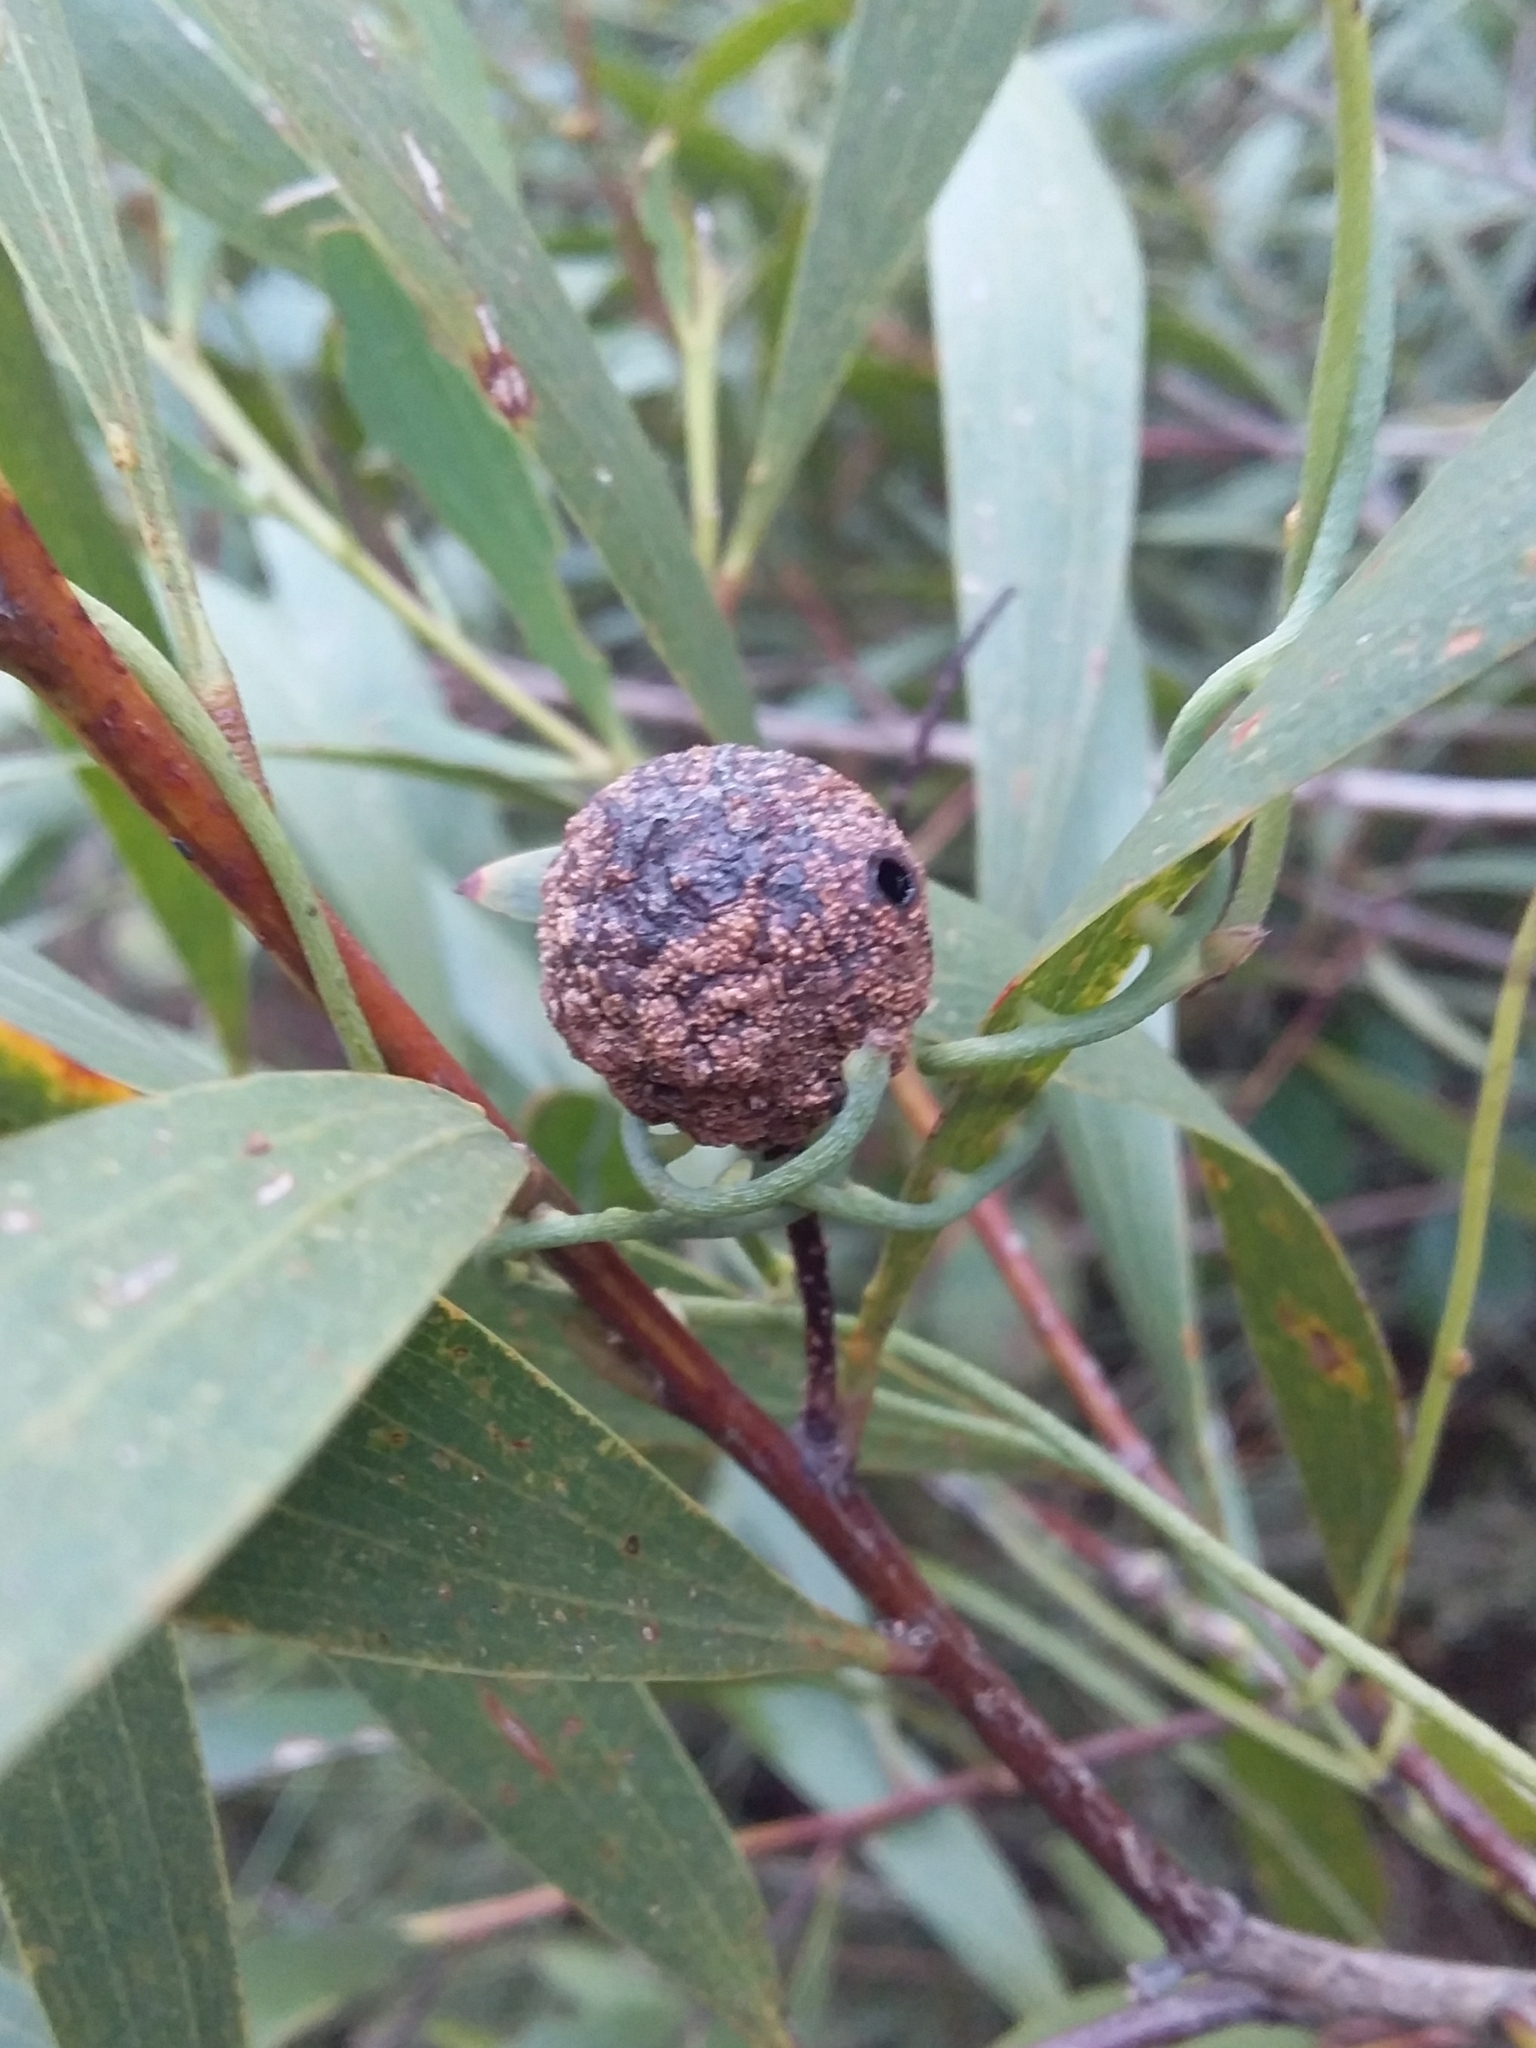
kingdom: Animalia
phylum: Arthropoda
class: Insecta
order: Hymenoptera
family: Pteromalidae
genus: Trichilogaster
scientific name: Trichilogaster acaciaelongifoliae
